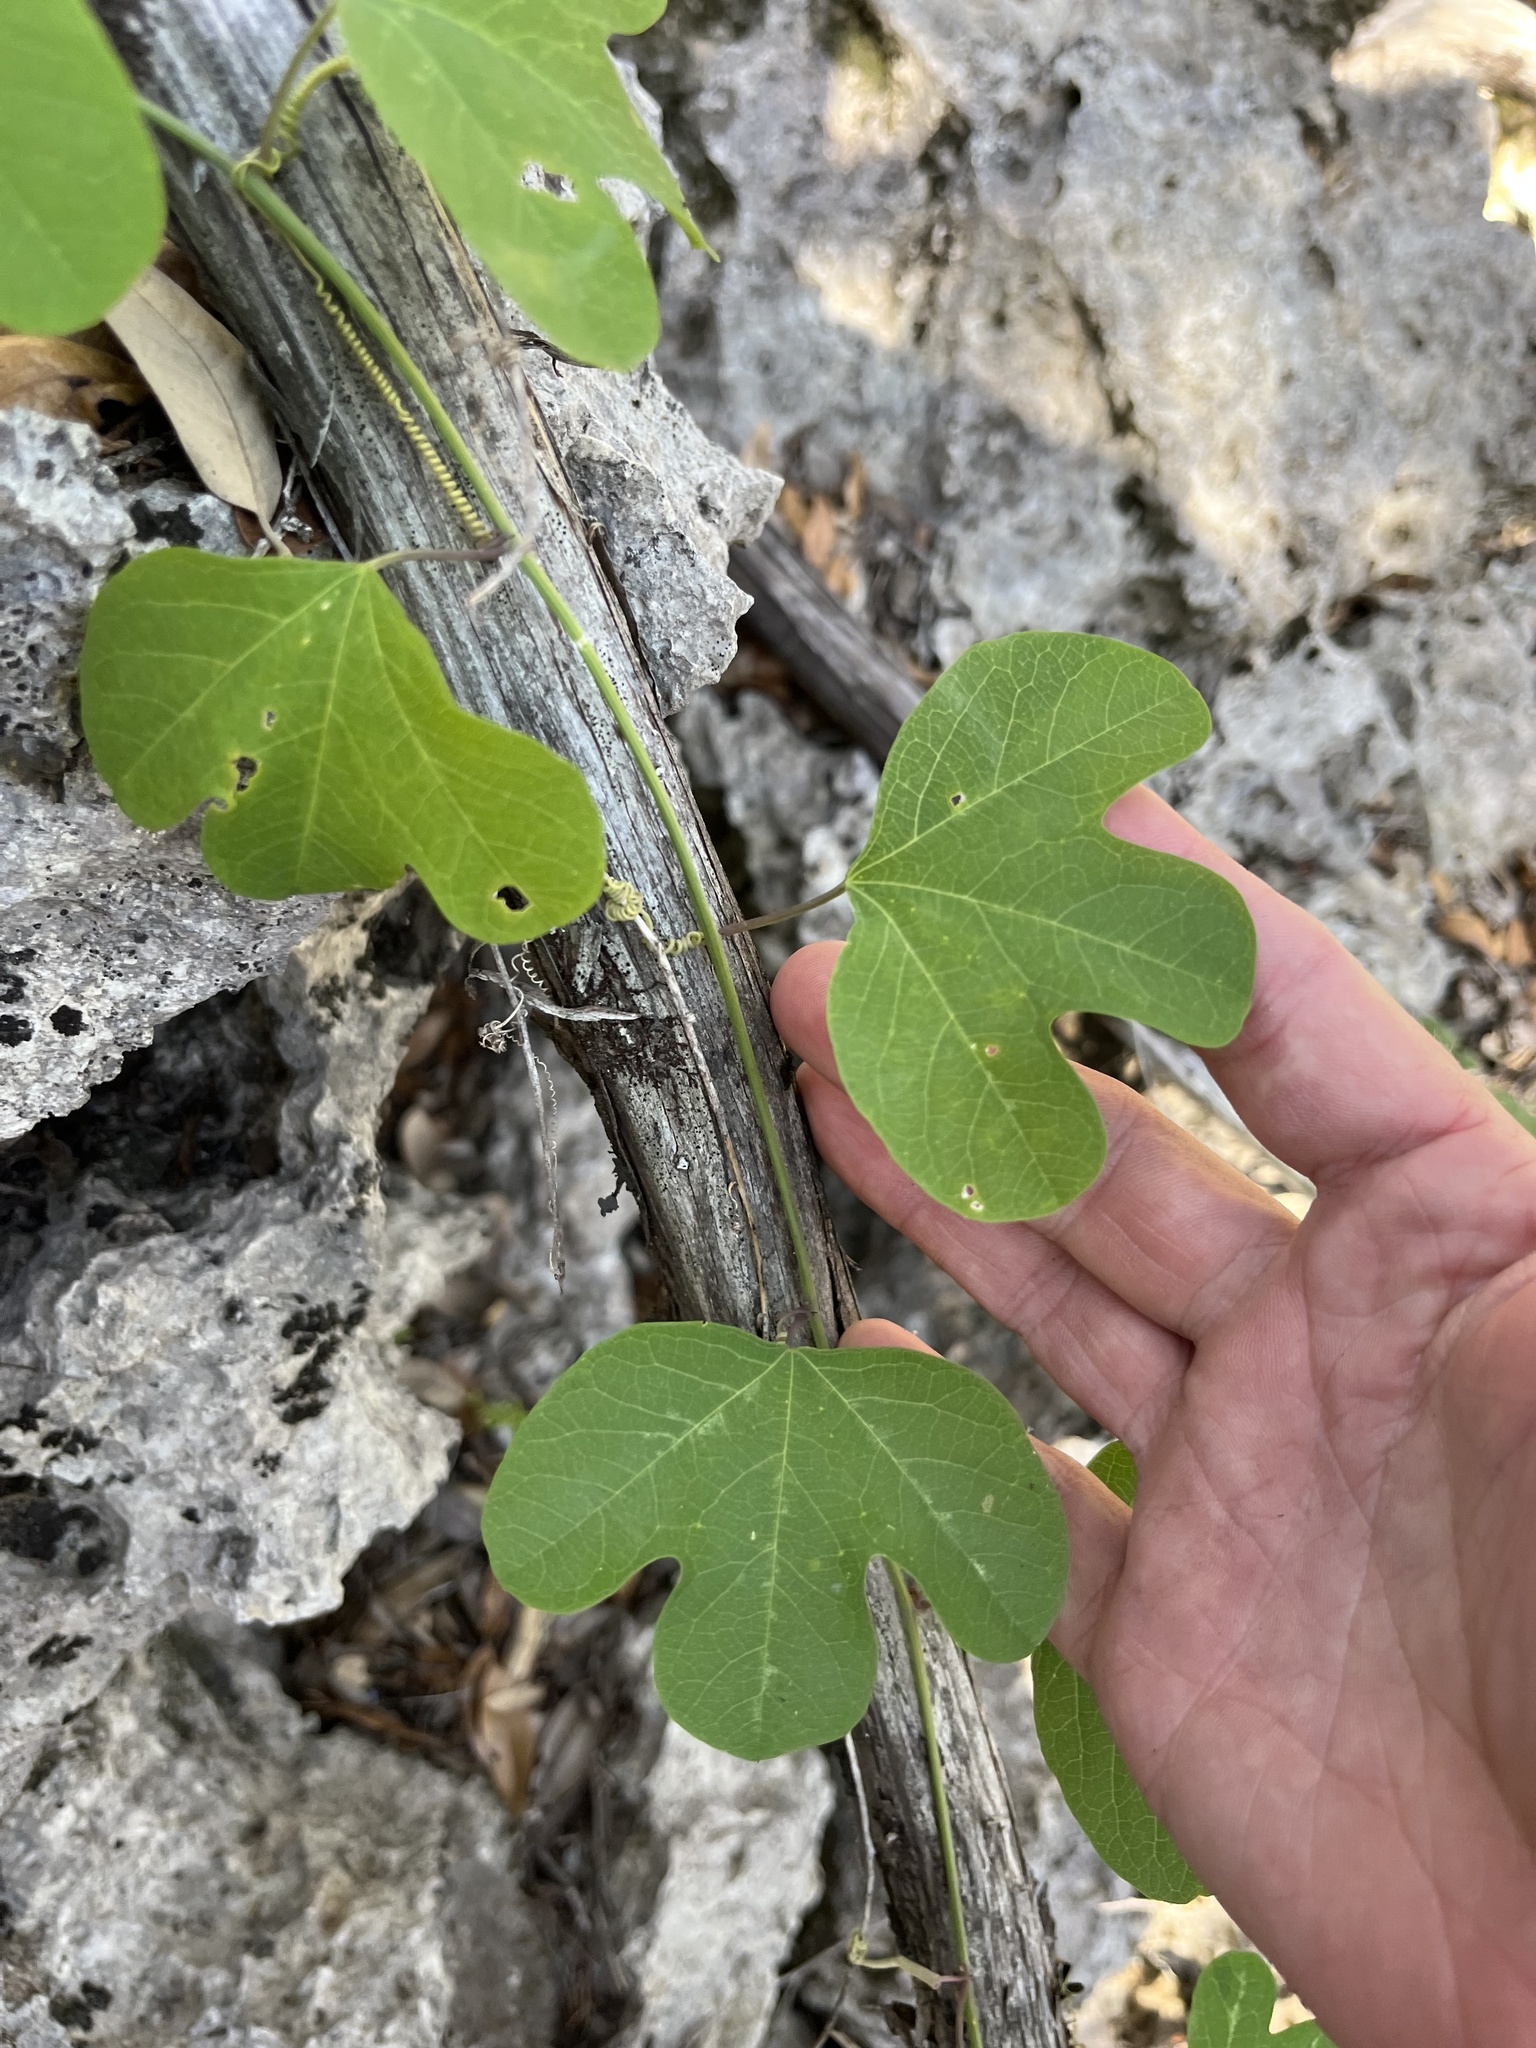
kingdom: Plantae
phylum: Tracheophyta
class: Magnoliopsida
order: Malpighiales
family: Passifloraceae
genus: Passiflora
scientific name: Passiflora affinis
